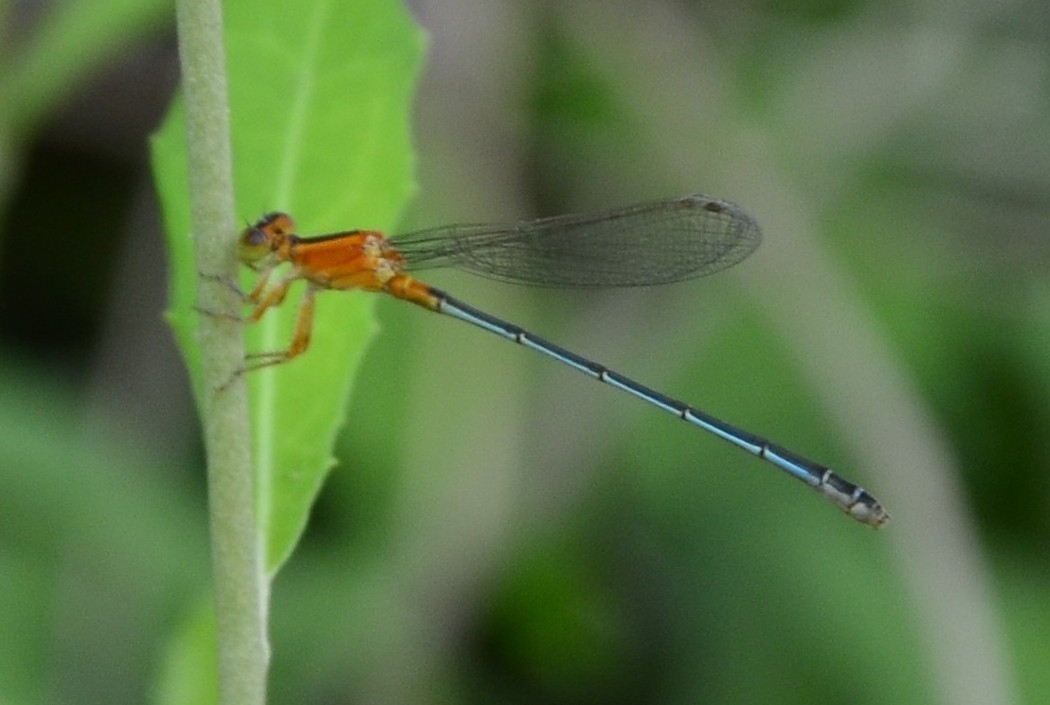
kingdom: Animalia
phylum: Arthropoda
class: Insecta
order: Odonata
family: Coenagrionidae
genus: Ischnura
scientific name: Ischnura senegalensis
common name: Tropical bluetail
